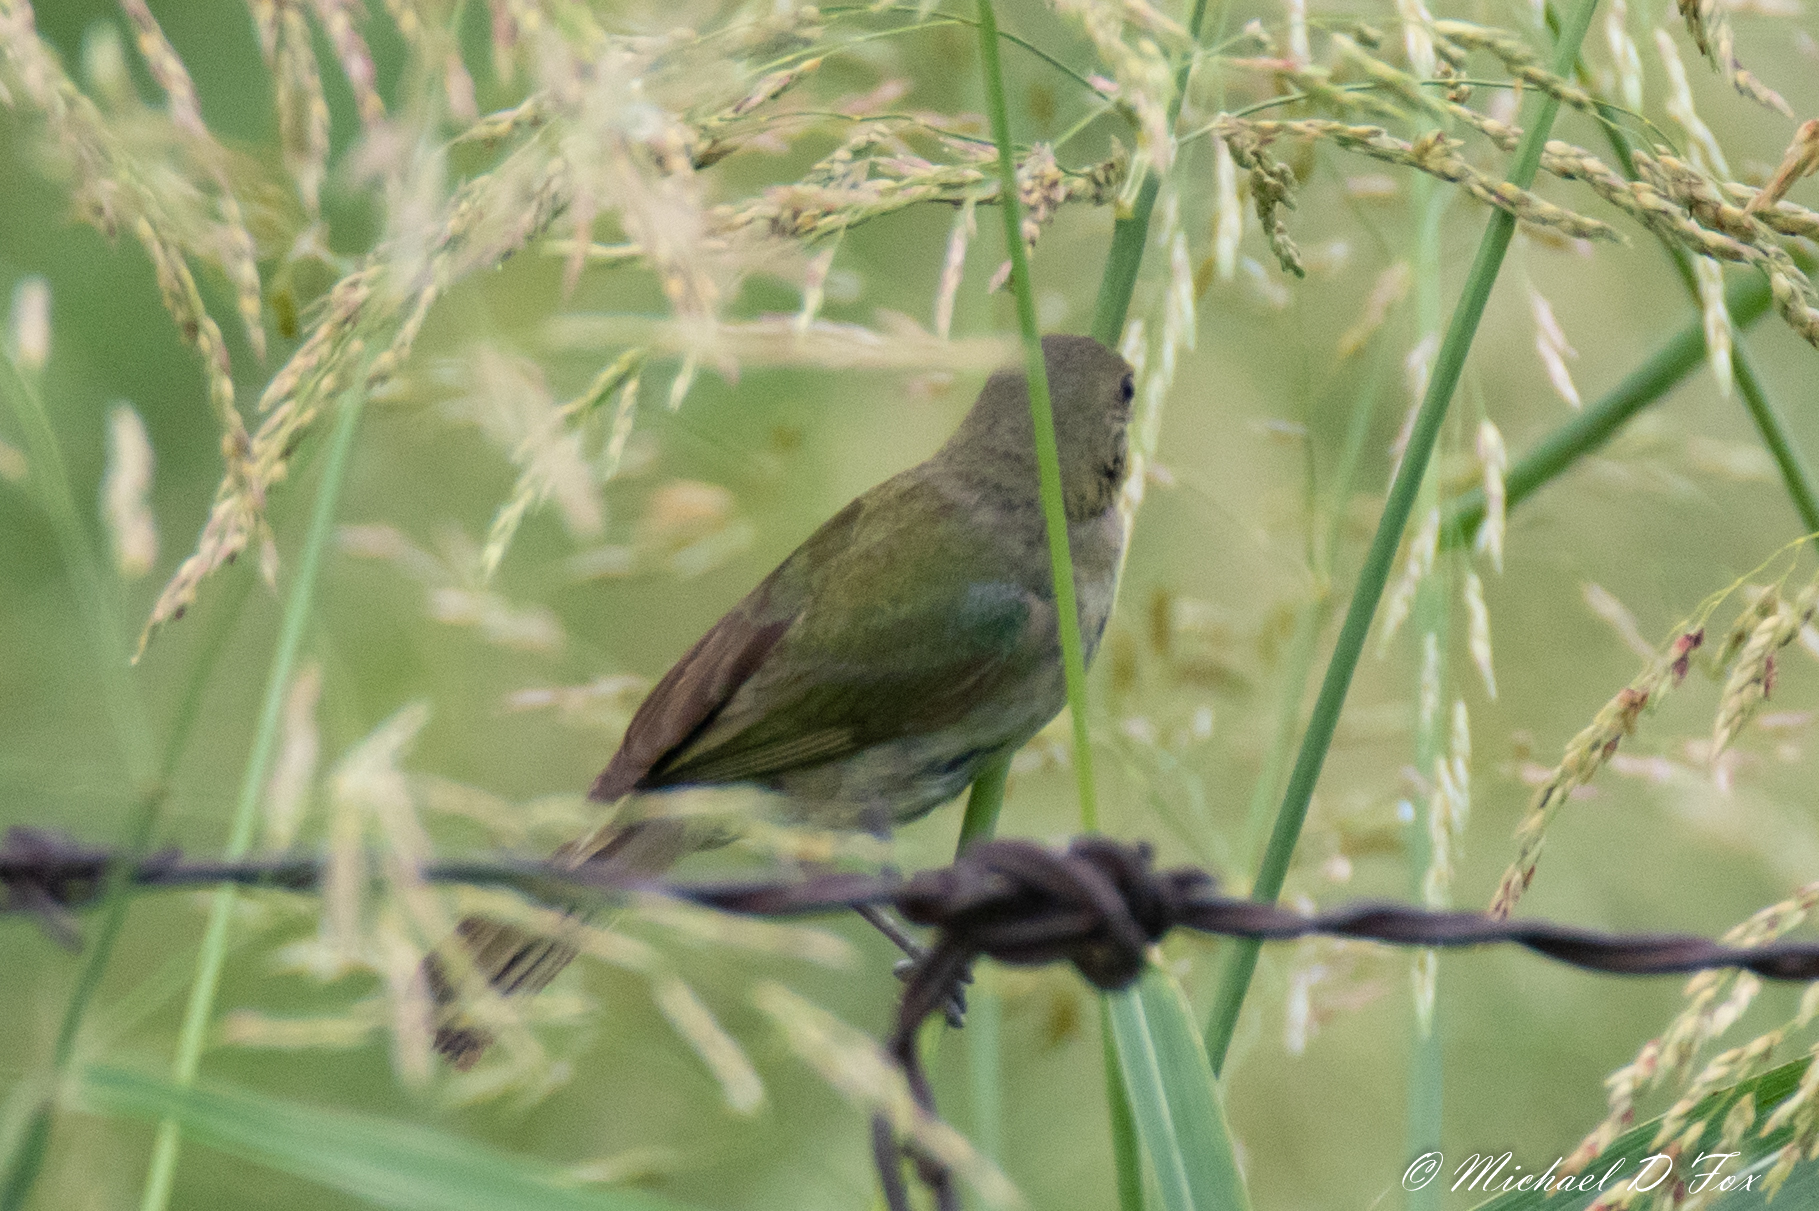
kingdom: Animalia
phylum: Chordata
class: Aves
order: Passeriformes
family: Cardinalidae
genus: Passerina
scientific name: Passerina ciris
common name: Painted bunting
